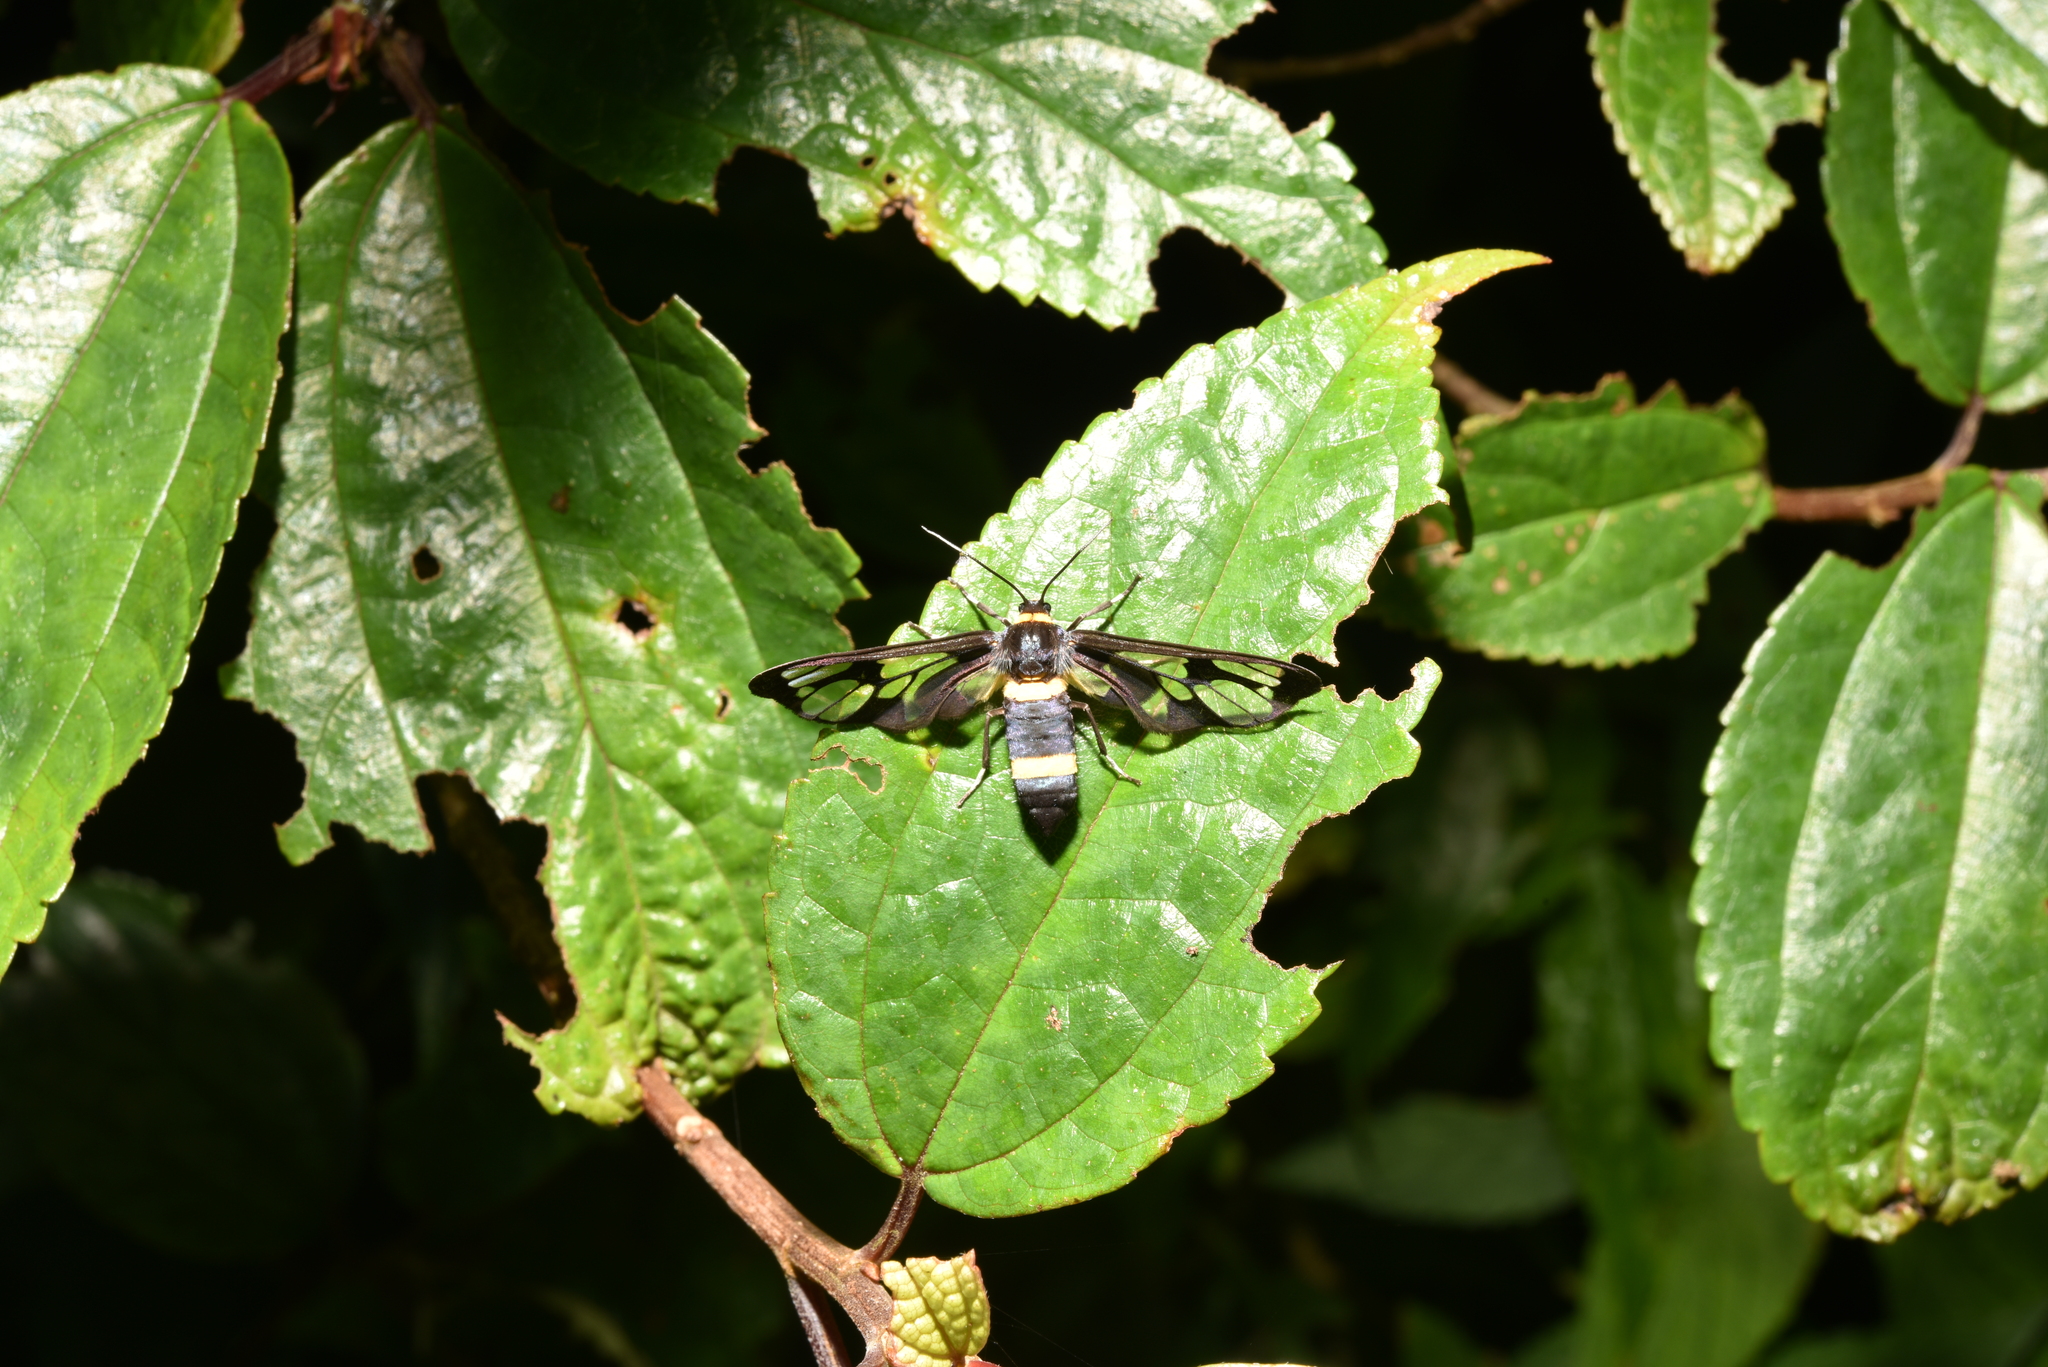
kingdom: Animalia
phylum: Arthropoda
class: Insecta
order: Lepidoptera
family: Erebidae
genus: Syntomoides
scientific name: Syntomoides imaon
